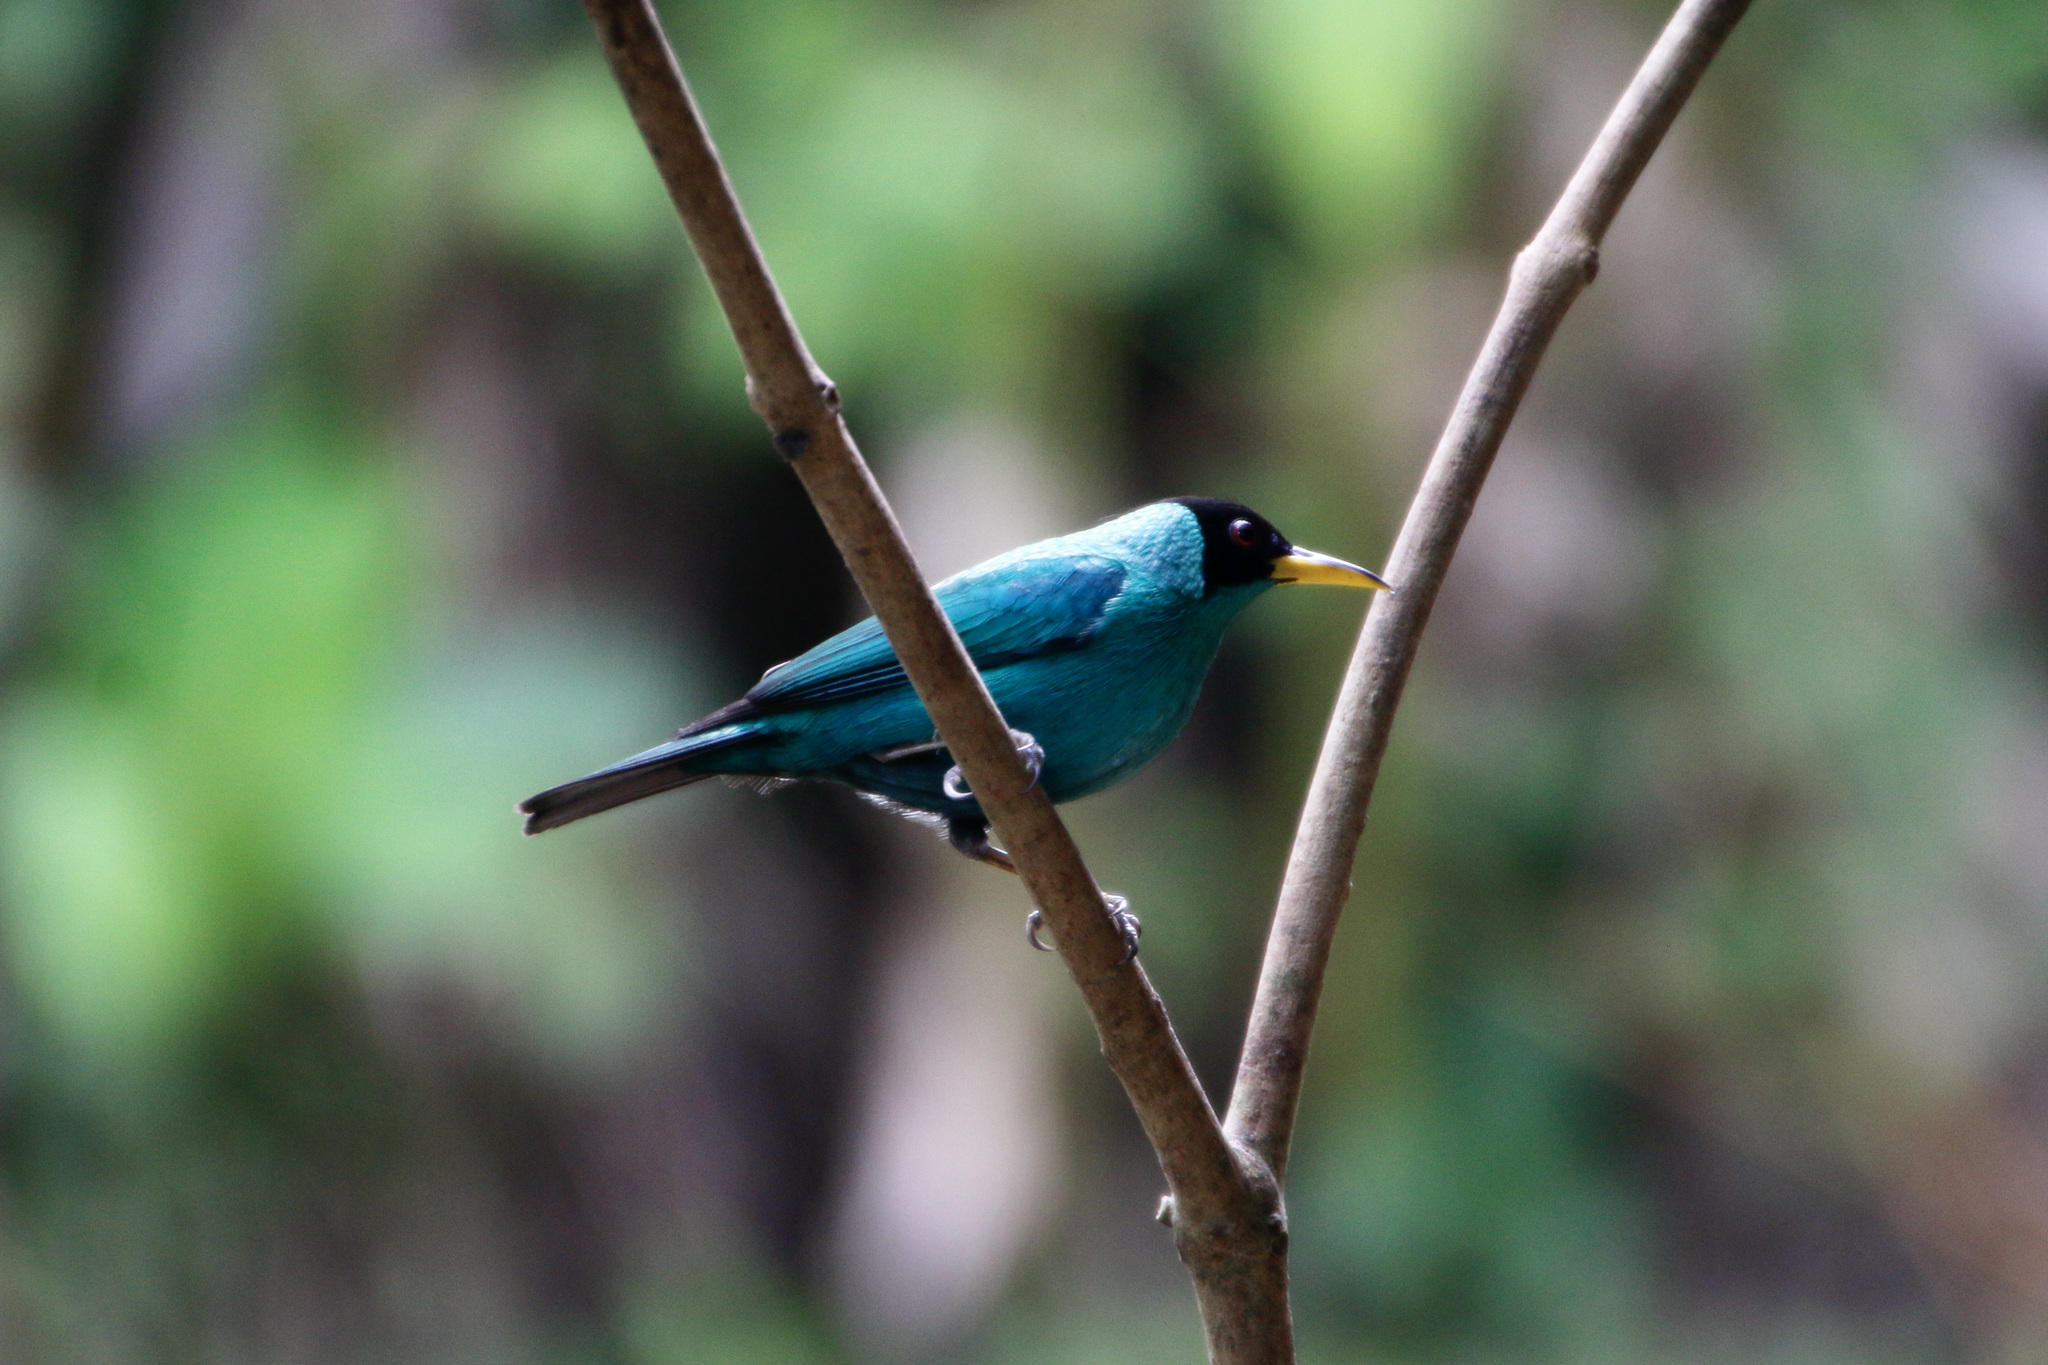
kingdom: Animalia
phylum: Chordata
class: Aves
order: Passeriformes
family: Thraupidae
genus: Chlorophanes
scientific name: Chlorophanes spiza
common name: Green honeycreeper
